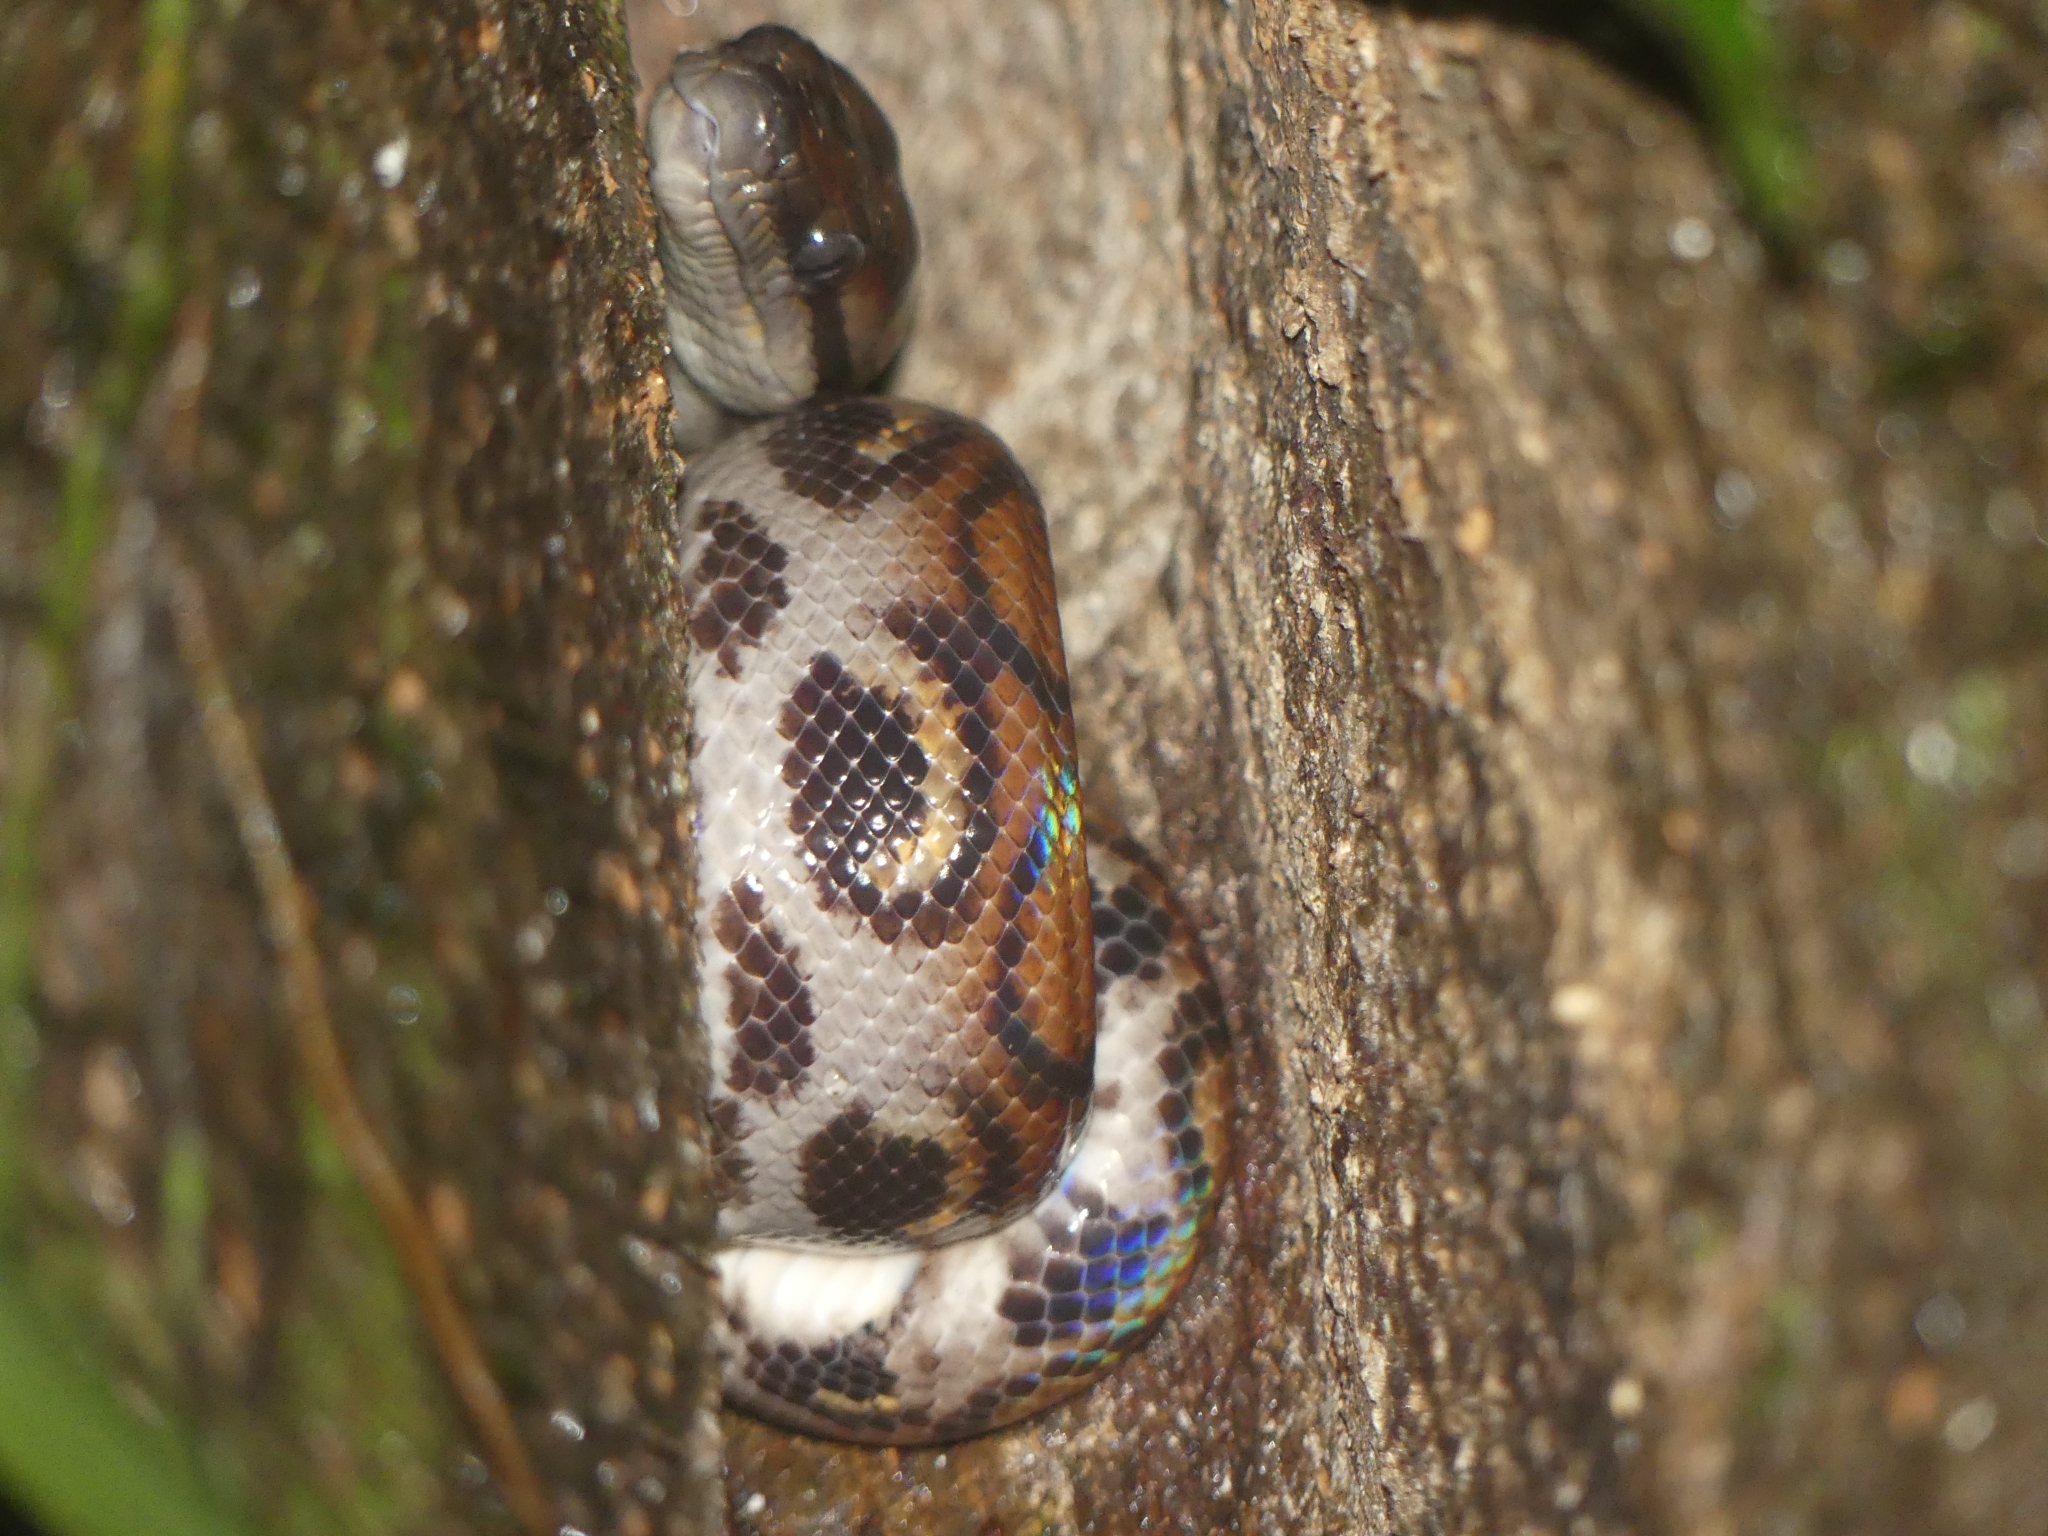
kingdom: Animalia
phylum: Chordata
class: Squamata
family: Boidae
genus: Epicrates
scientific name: Epicrates cenchria
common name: Rainbow boa
